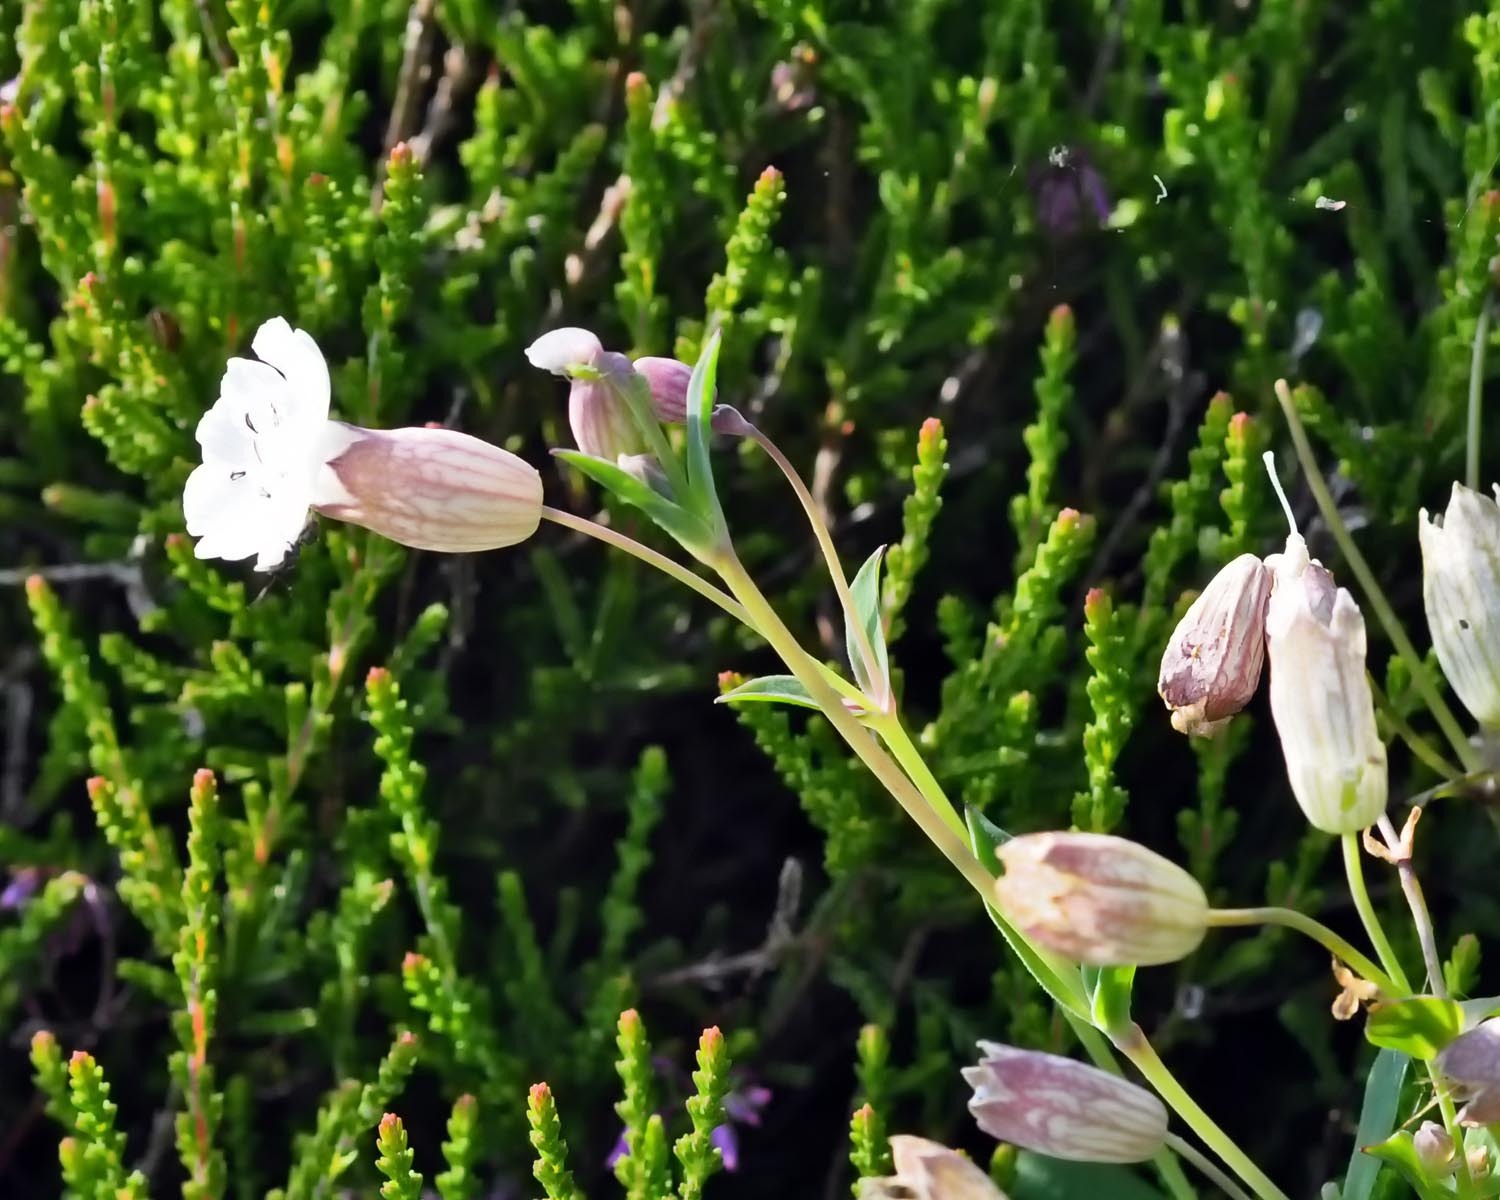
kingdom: Plantae
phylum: Tracheophyta
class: Magnoliopsida
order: Caryophyllales
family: Caryophyllaceae
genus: Silene
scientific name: Silene uniflora
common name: Sea campion
